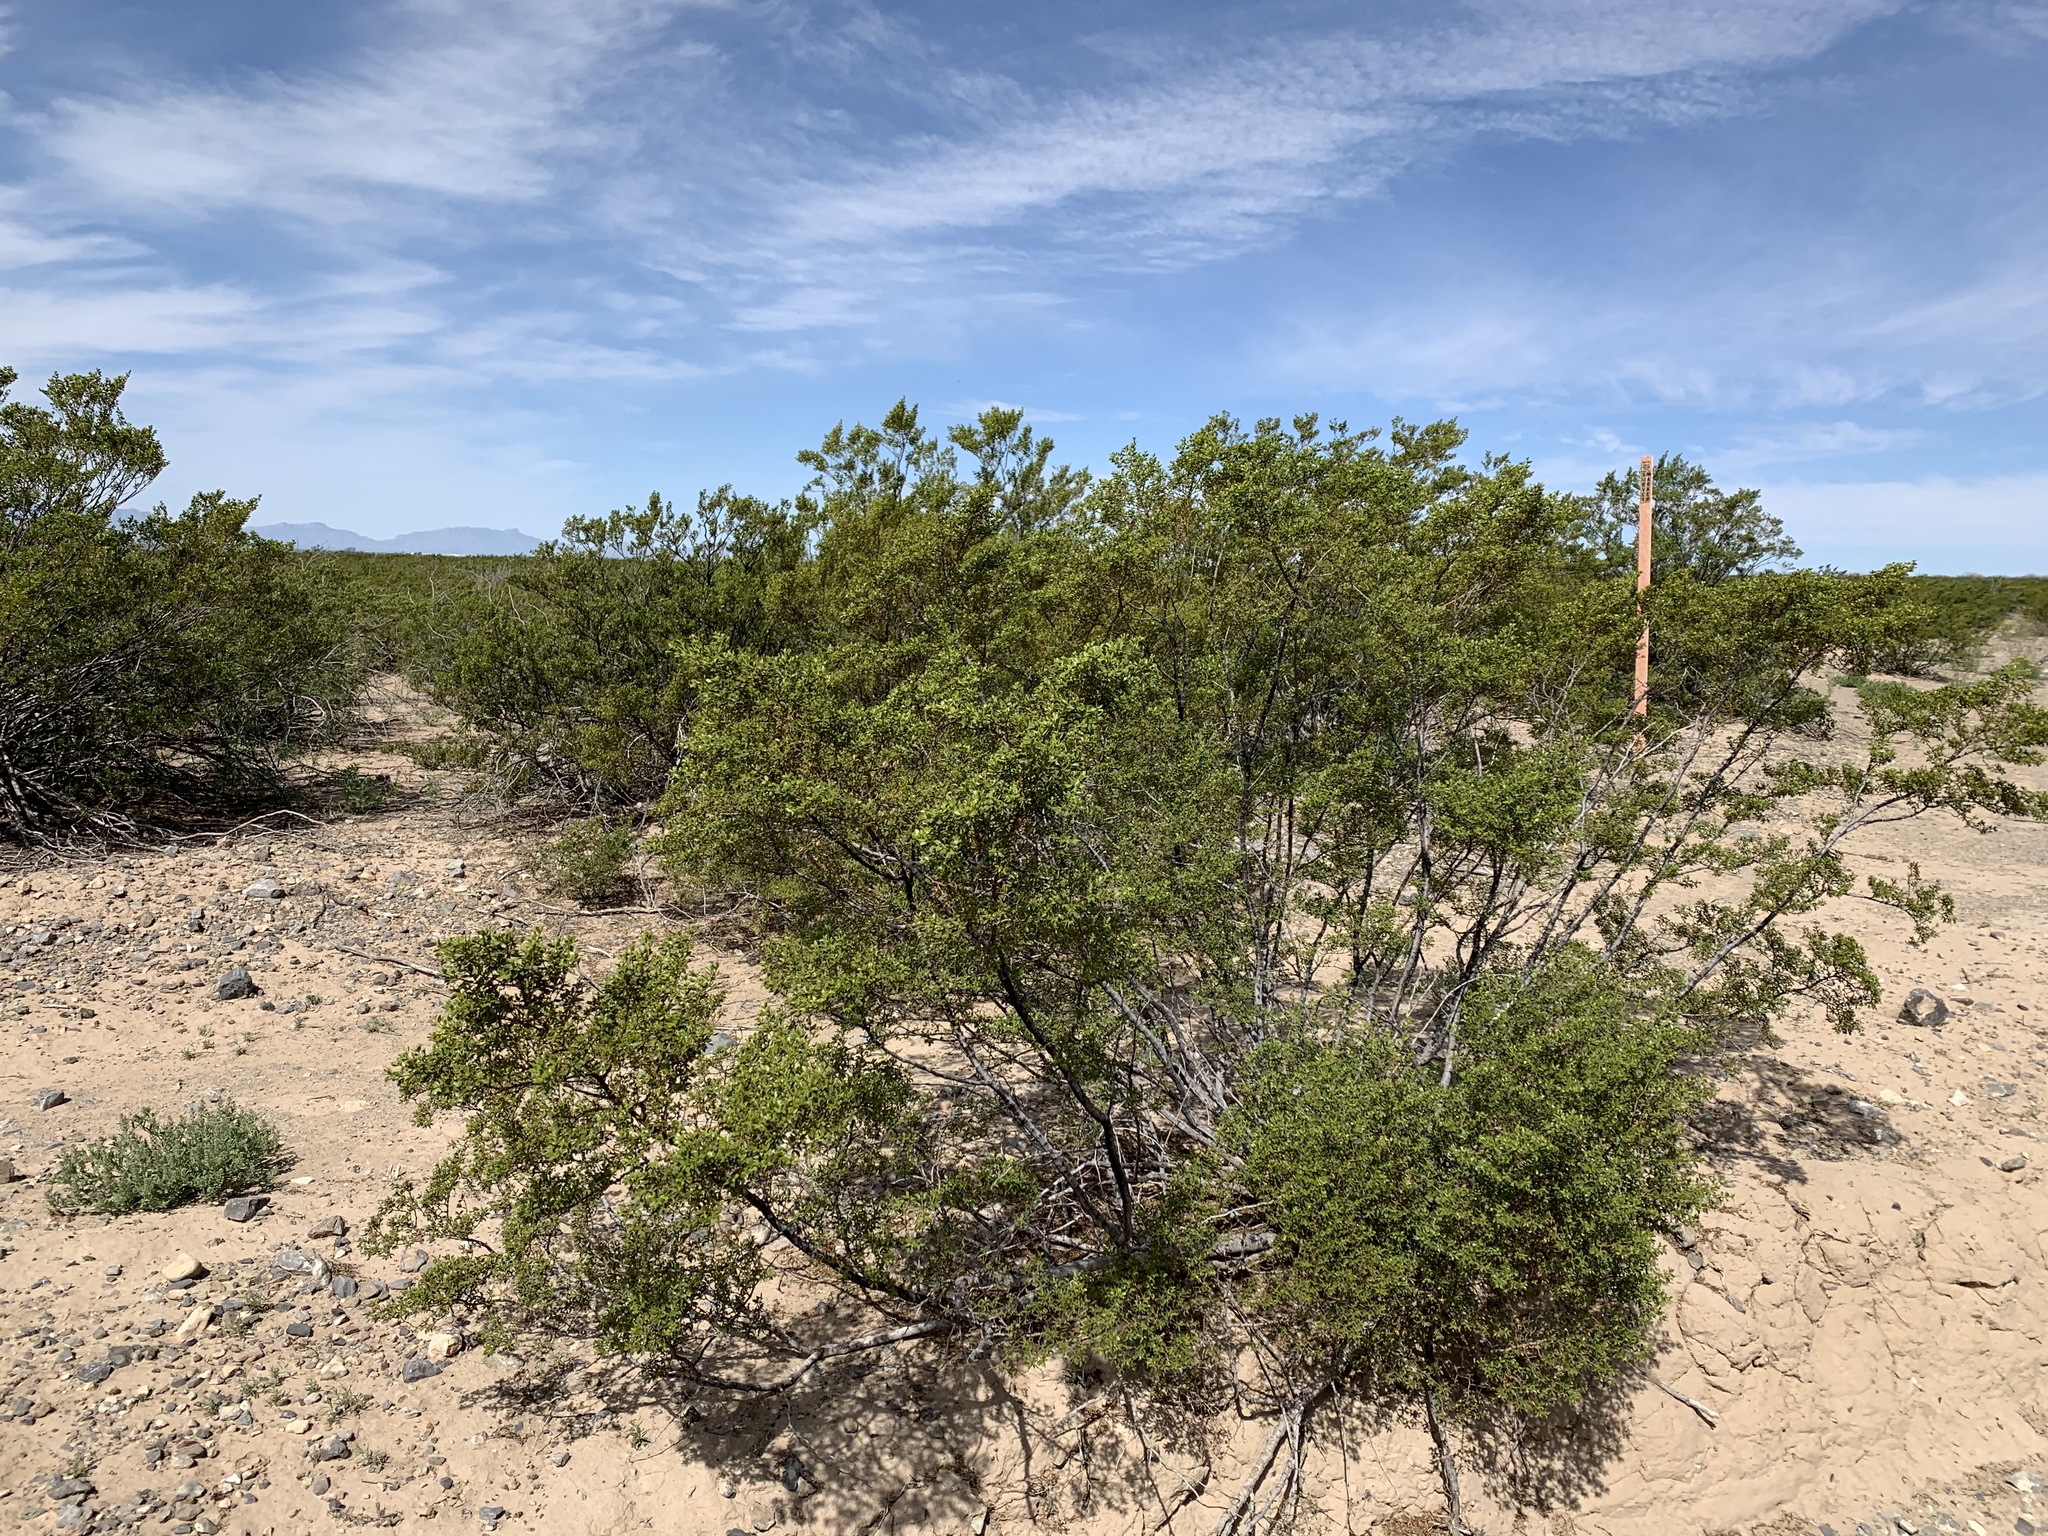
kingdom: Plantae
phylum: Tracheophyta
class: Magnoliopsida
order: Zygophyllales
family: Zygophyllaceae
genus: Larrea
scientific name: Larrea tridentata
